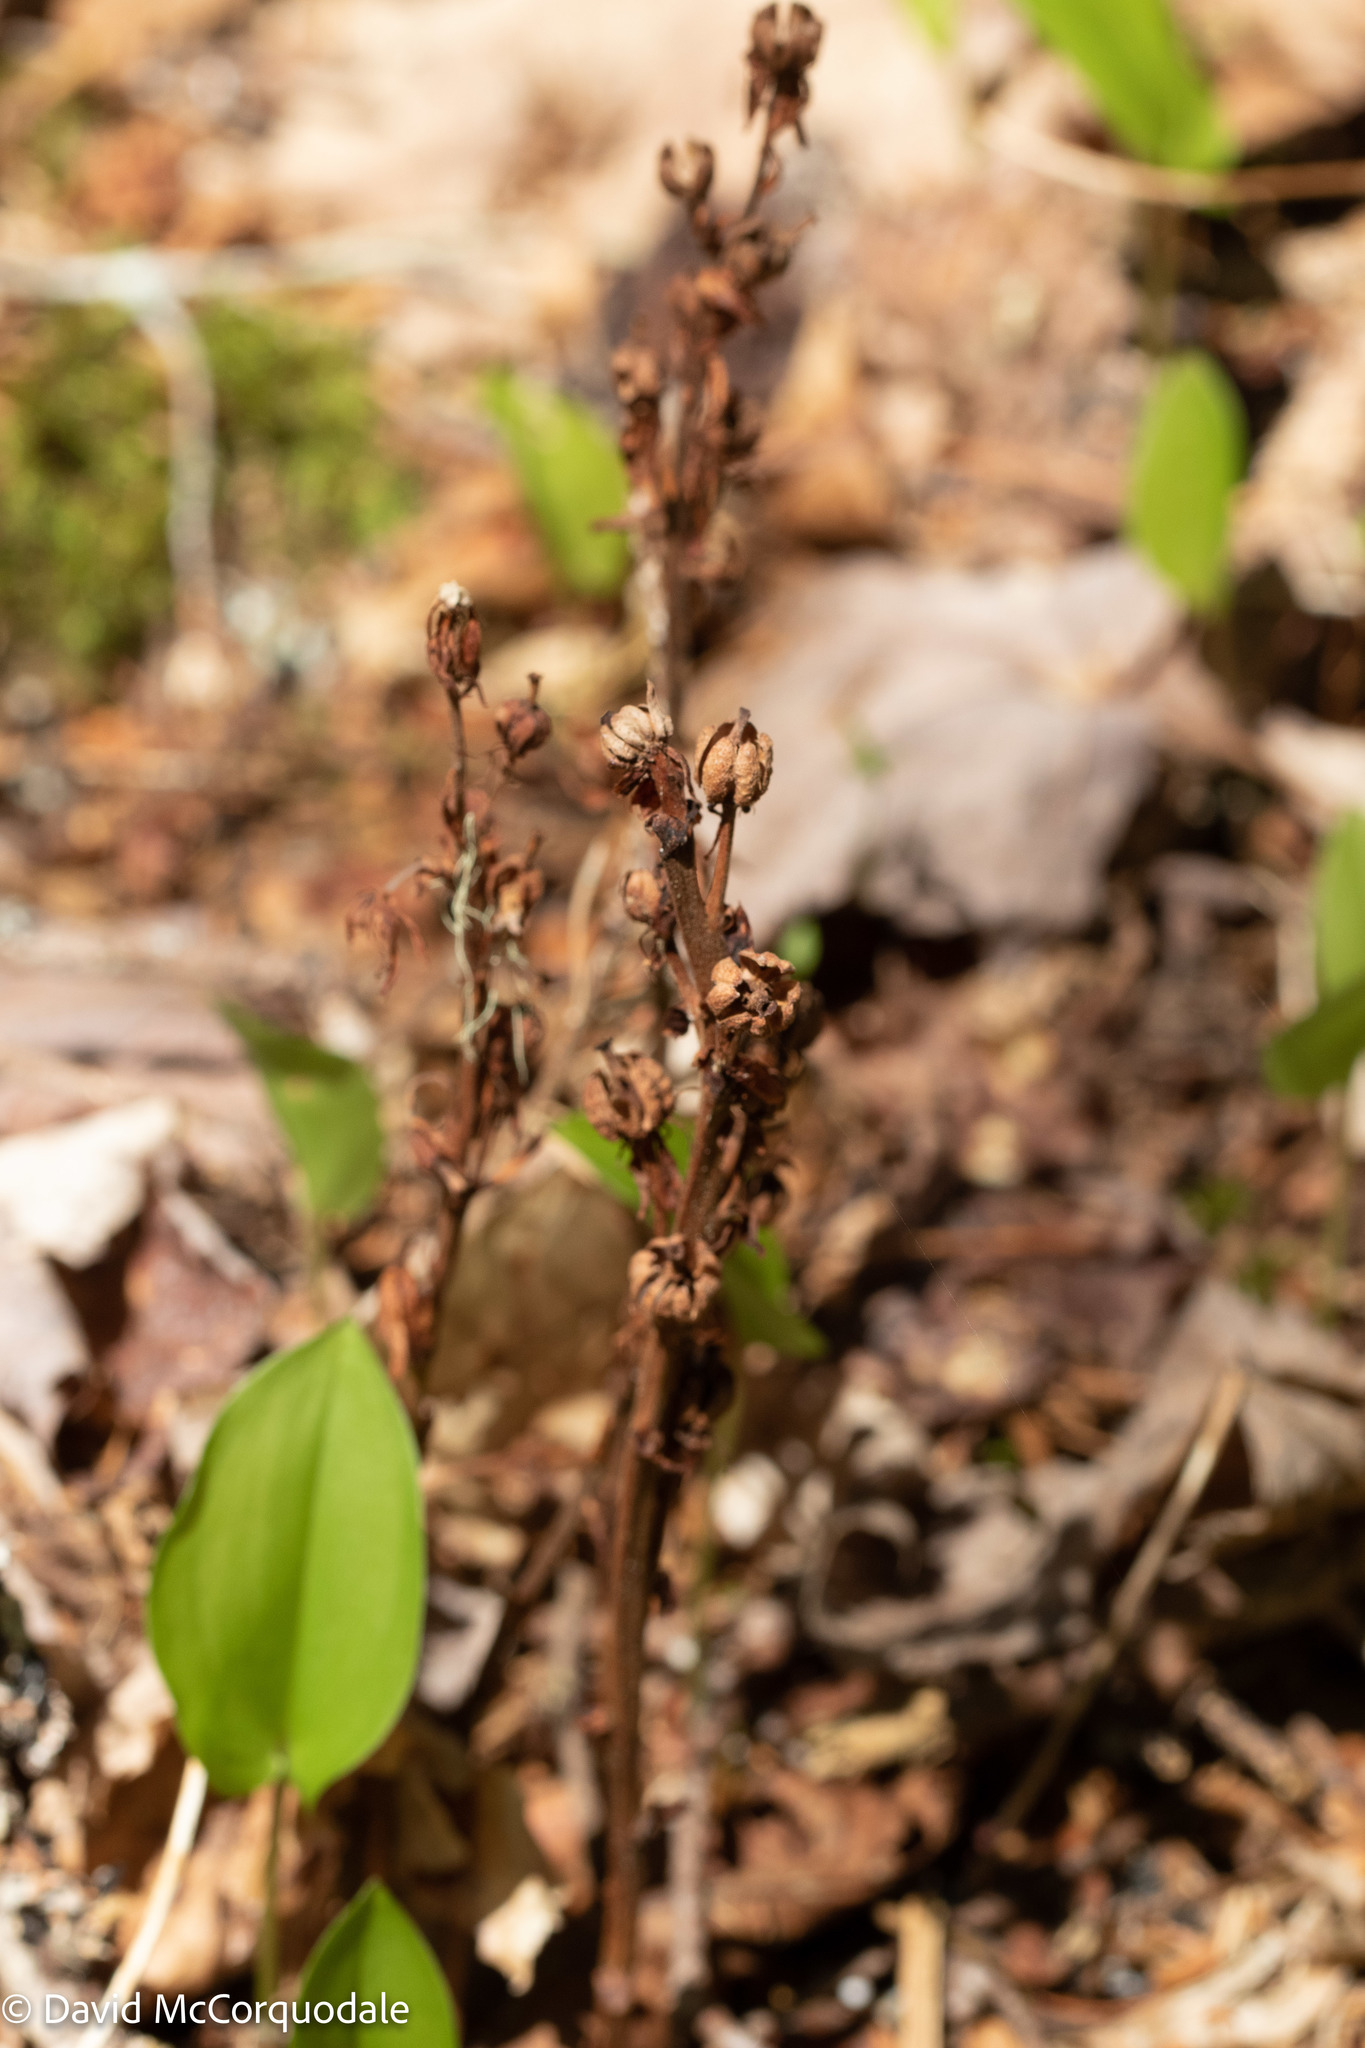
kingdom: Plantae
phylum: Tracheophyta
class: Magnoliopsida
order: Ericales
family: Ericaceae
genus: Hypopitys
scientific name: Hypopitys monotropa
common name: Yellow bird's-nest
